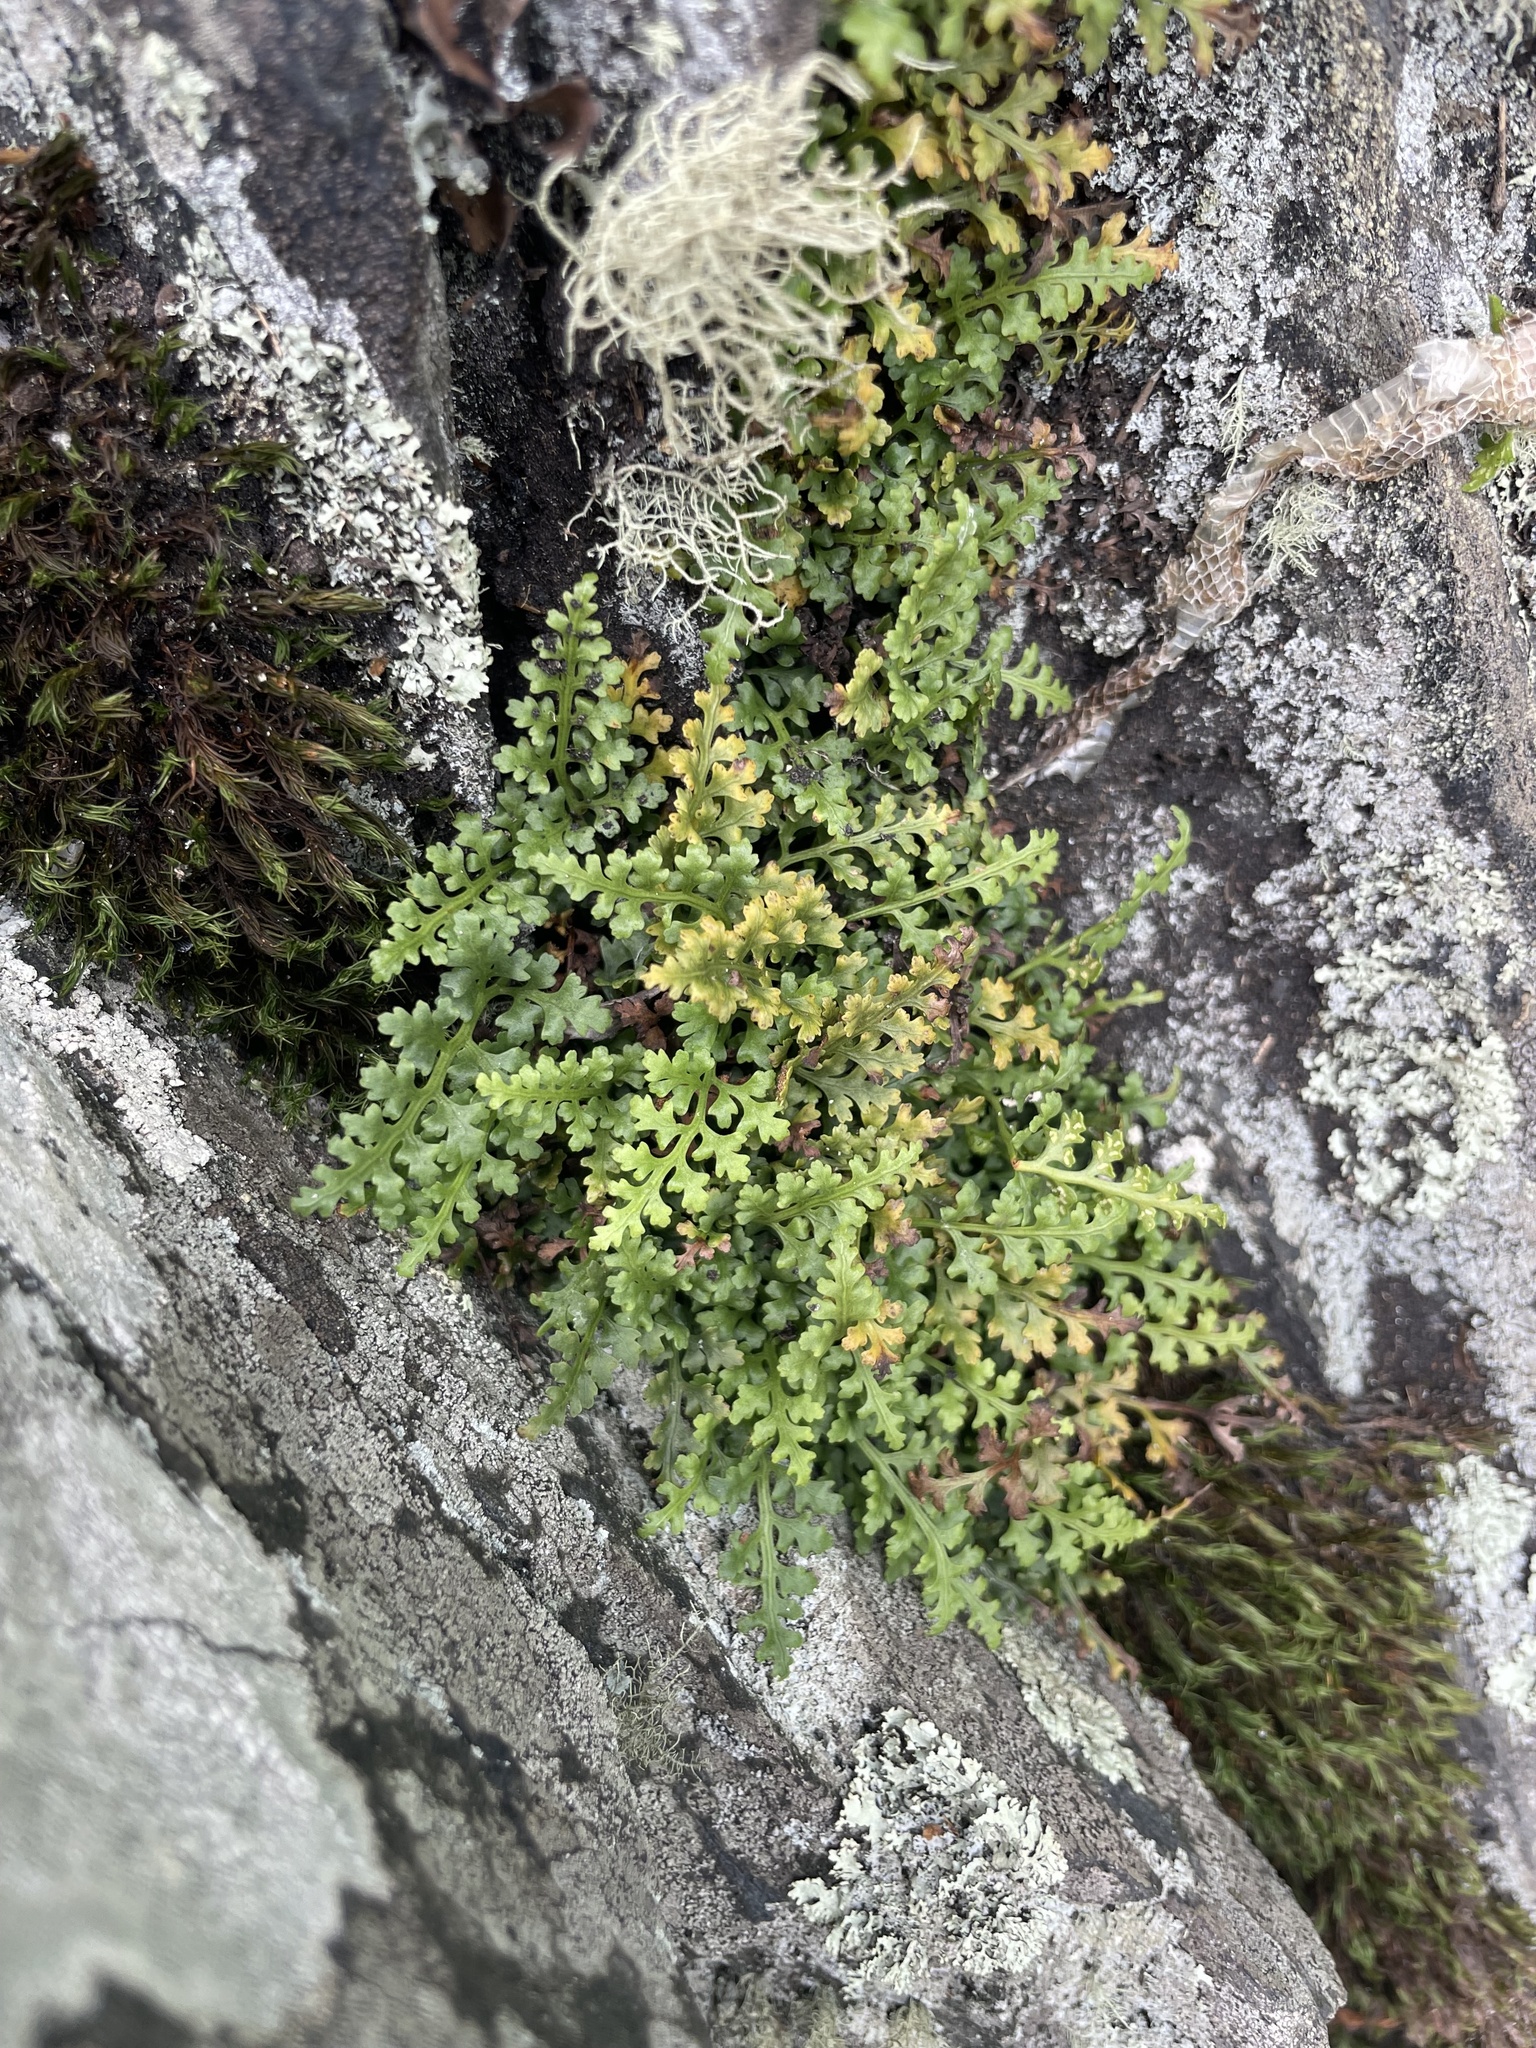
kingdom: Plantae
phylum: Tracheophyta
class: Polypodiopsida
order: Polypodiales
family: Aspleniaceae
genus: Asplenium
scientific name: Asplenium montanum
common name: Mountain spleenwort
